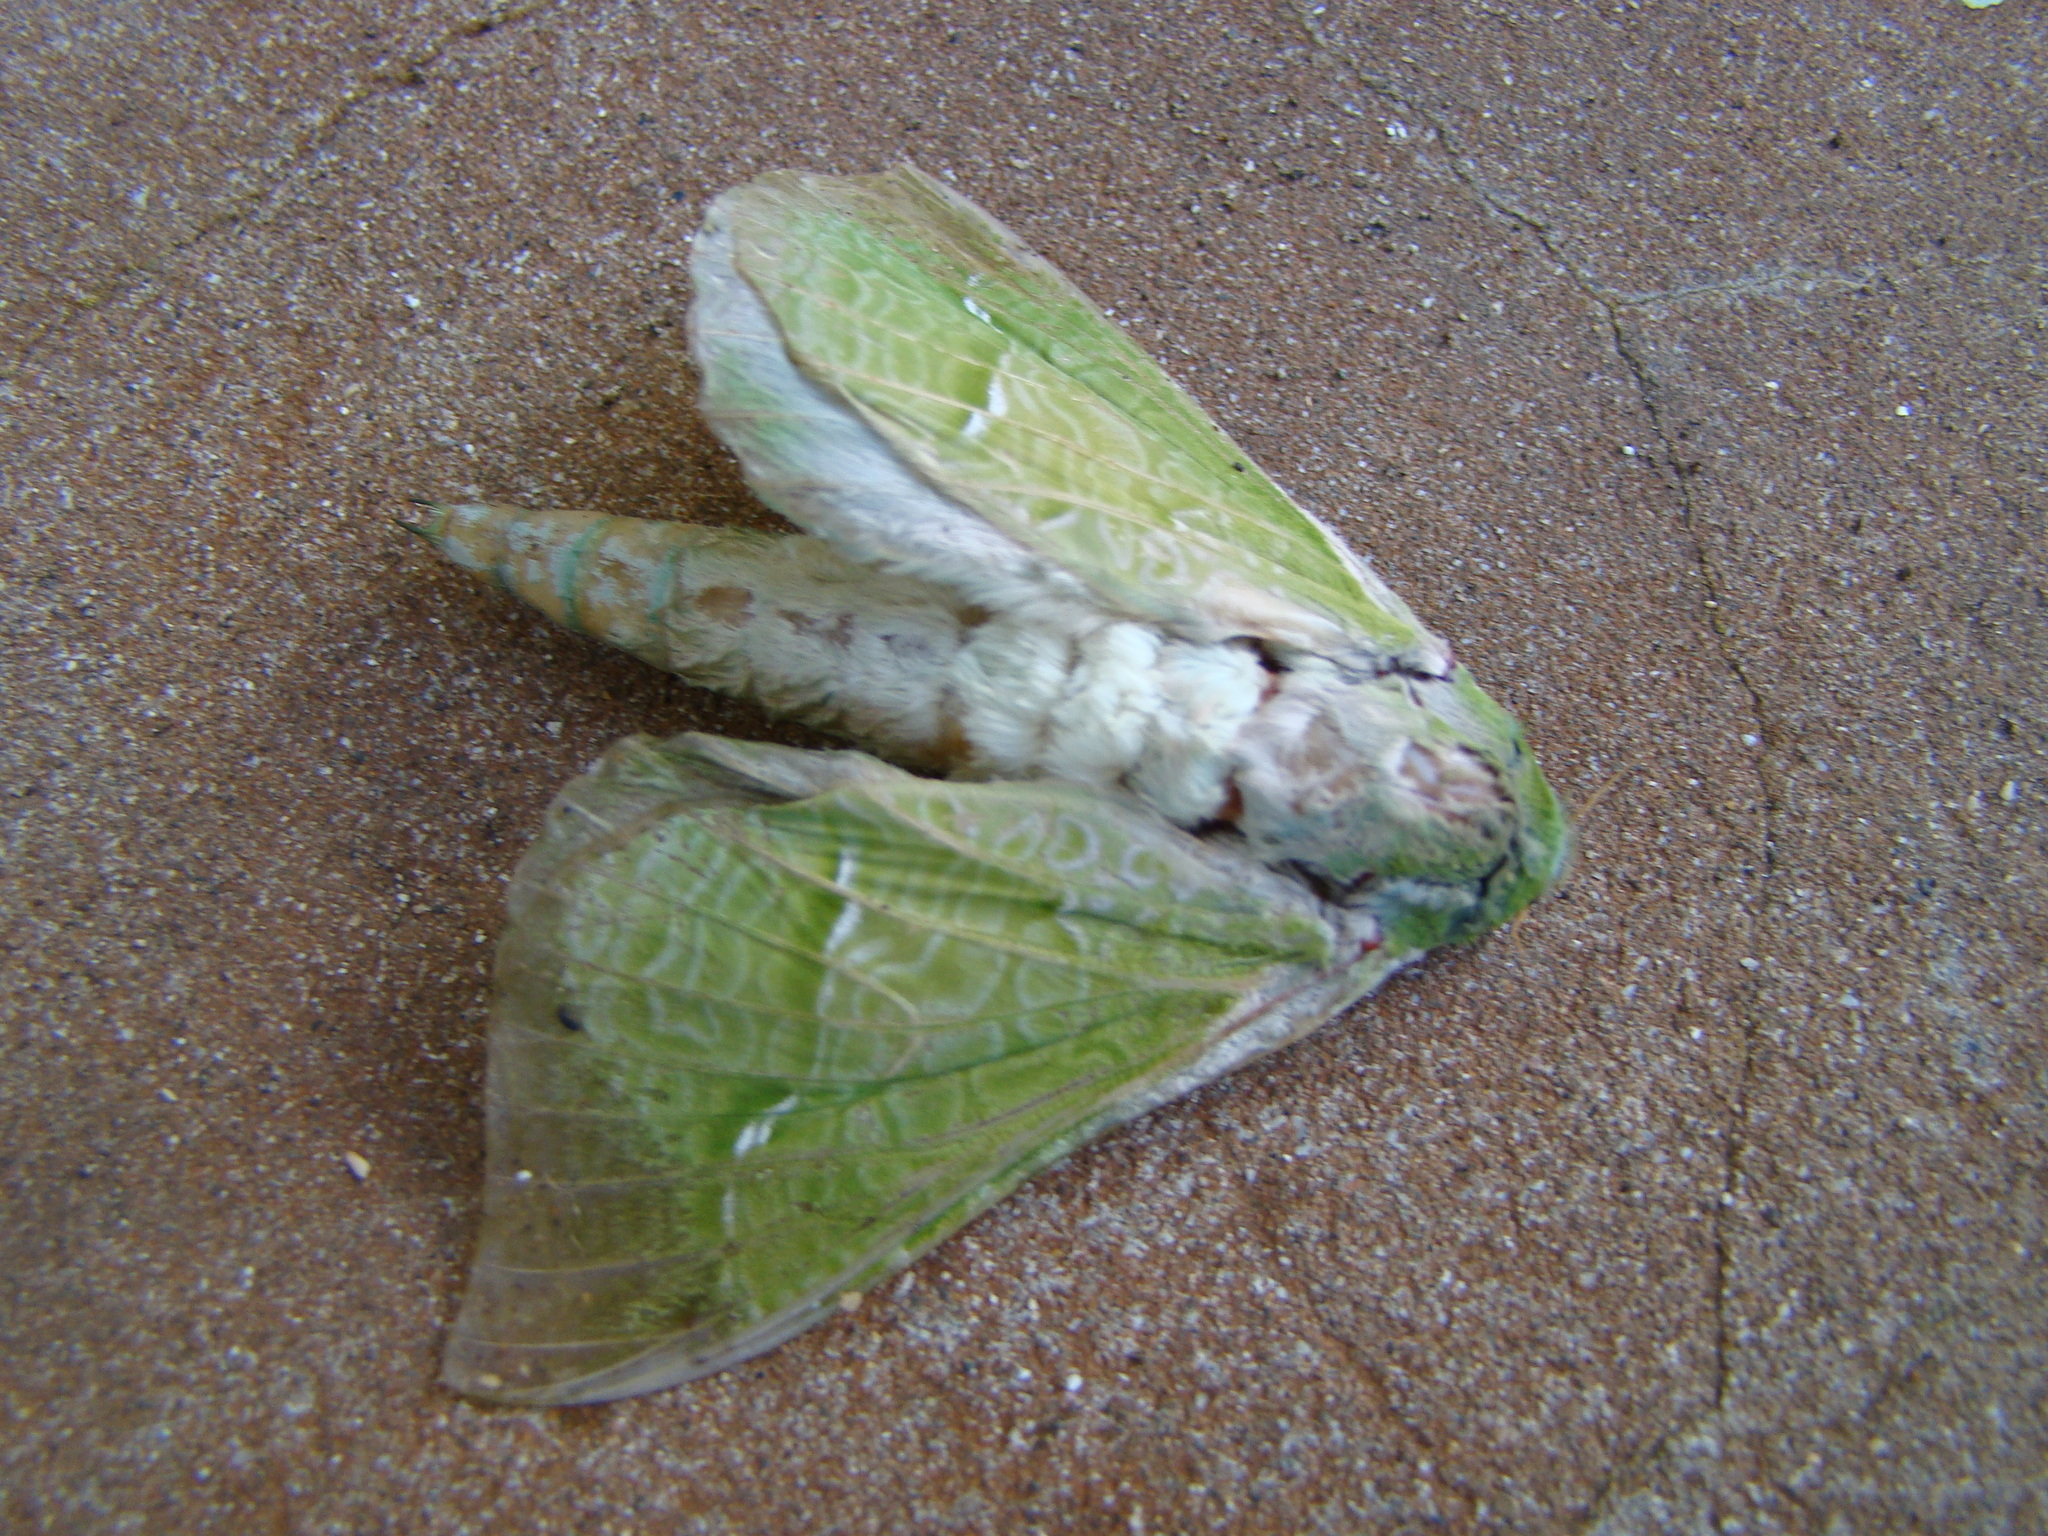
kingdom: Animalia
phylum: Arthropoda
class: Insecta
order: Lepidoptera
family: Hepialidae
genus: Aenetus
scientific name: Aenetus virescens
